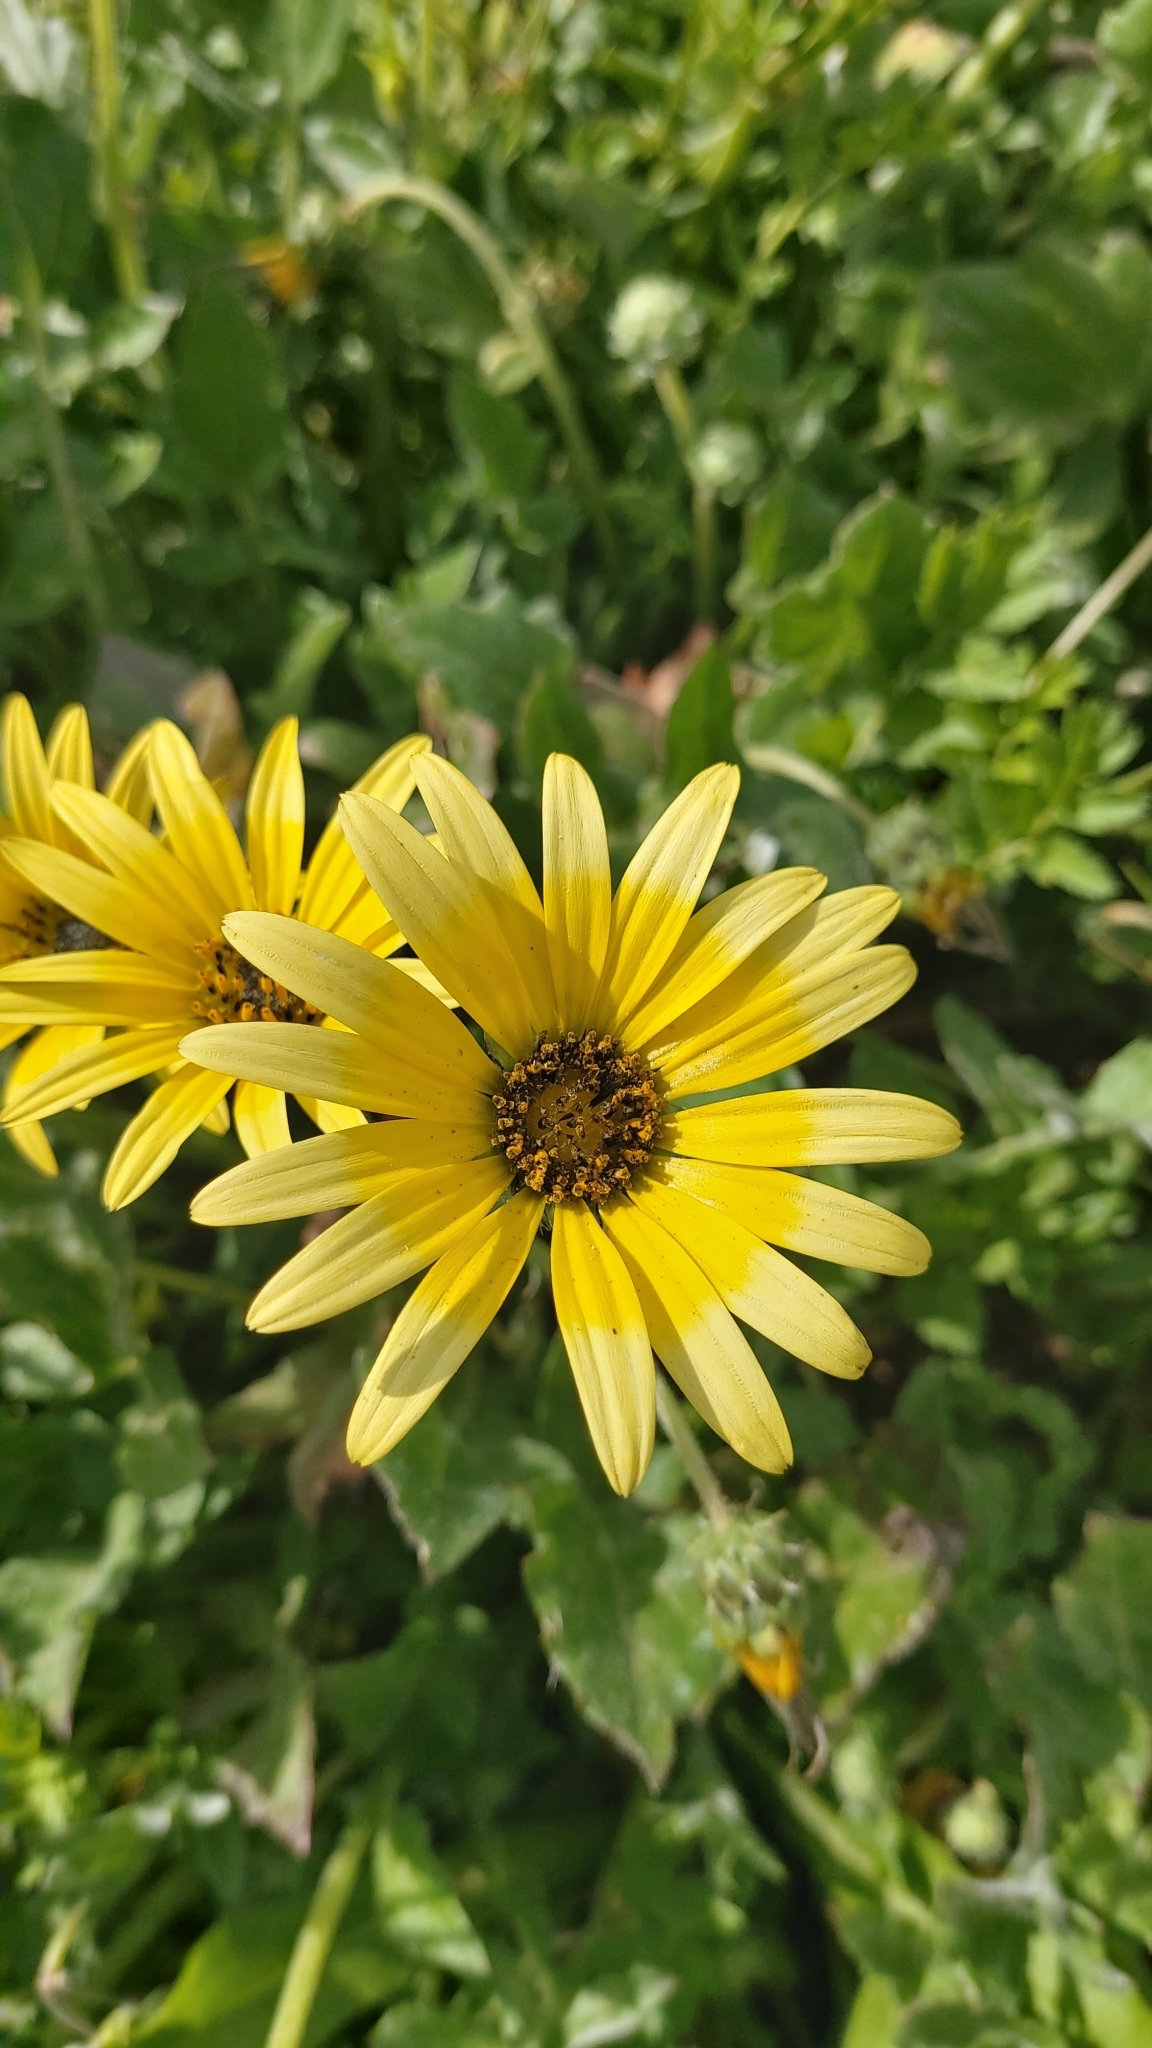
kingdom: Plantae
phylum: Tracheophyta
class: Magnoliopsida
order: Asterales
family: Asteraceae
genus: Arctotheca
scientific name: Arctotheca calendula
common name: Capeweed
